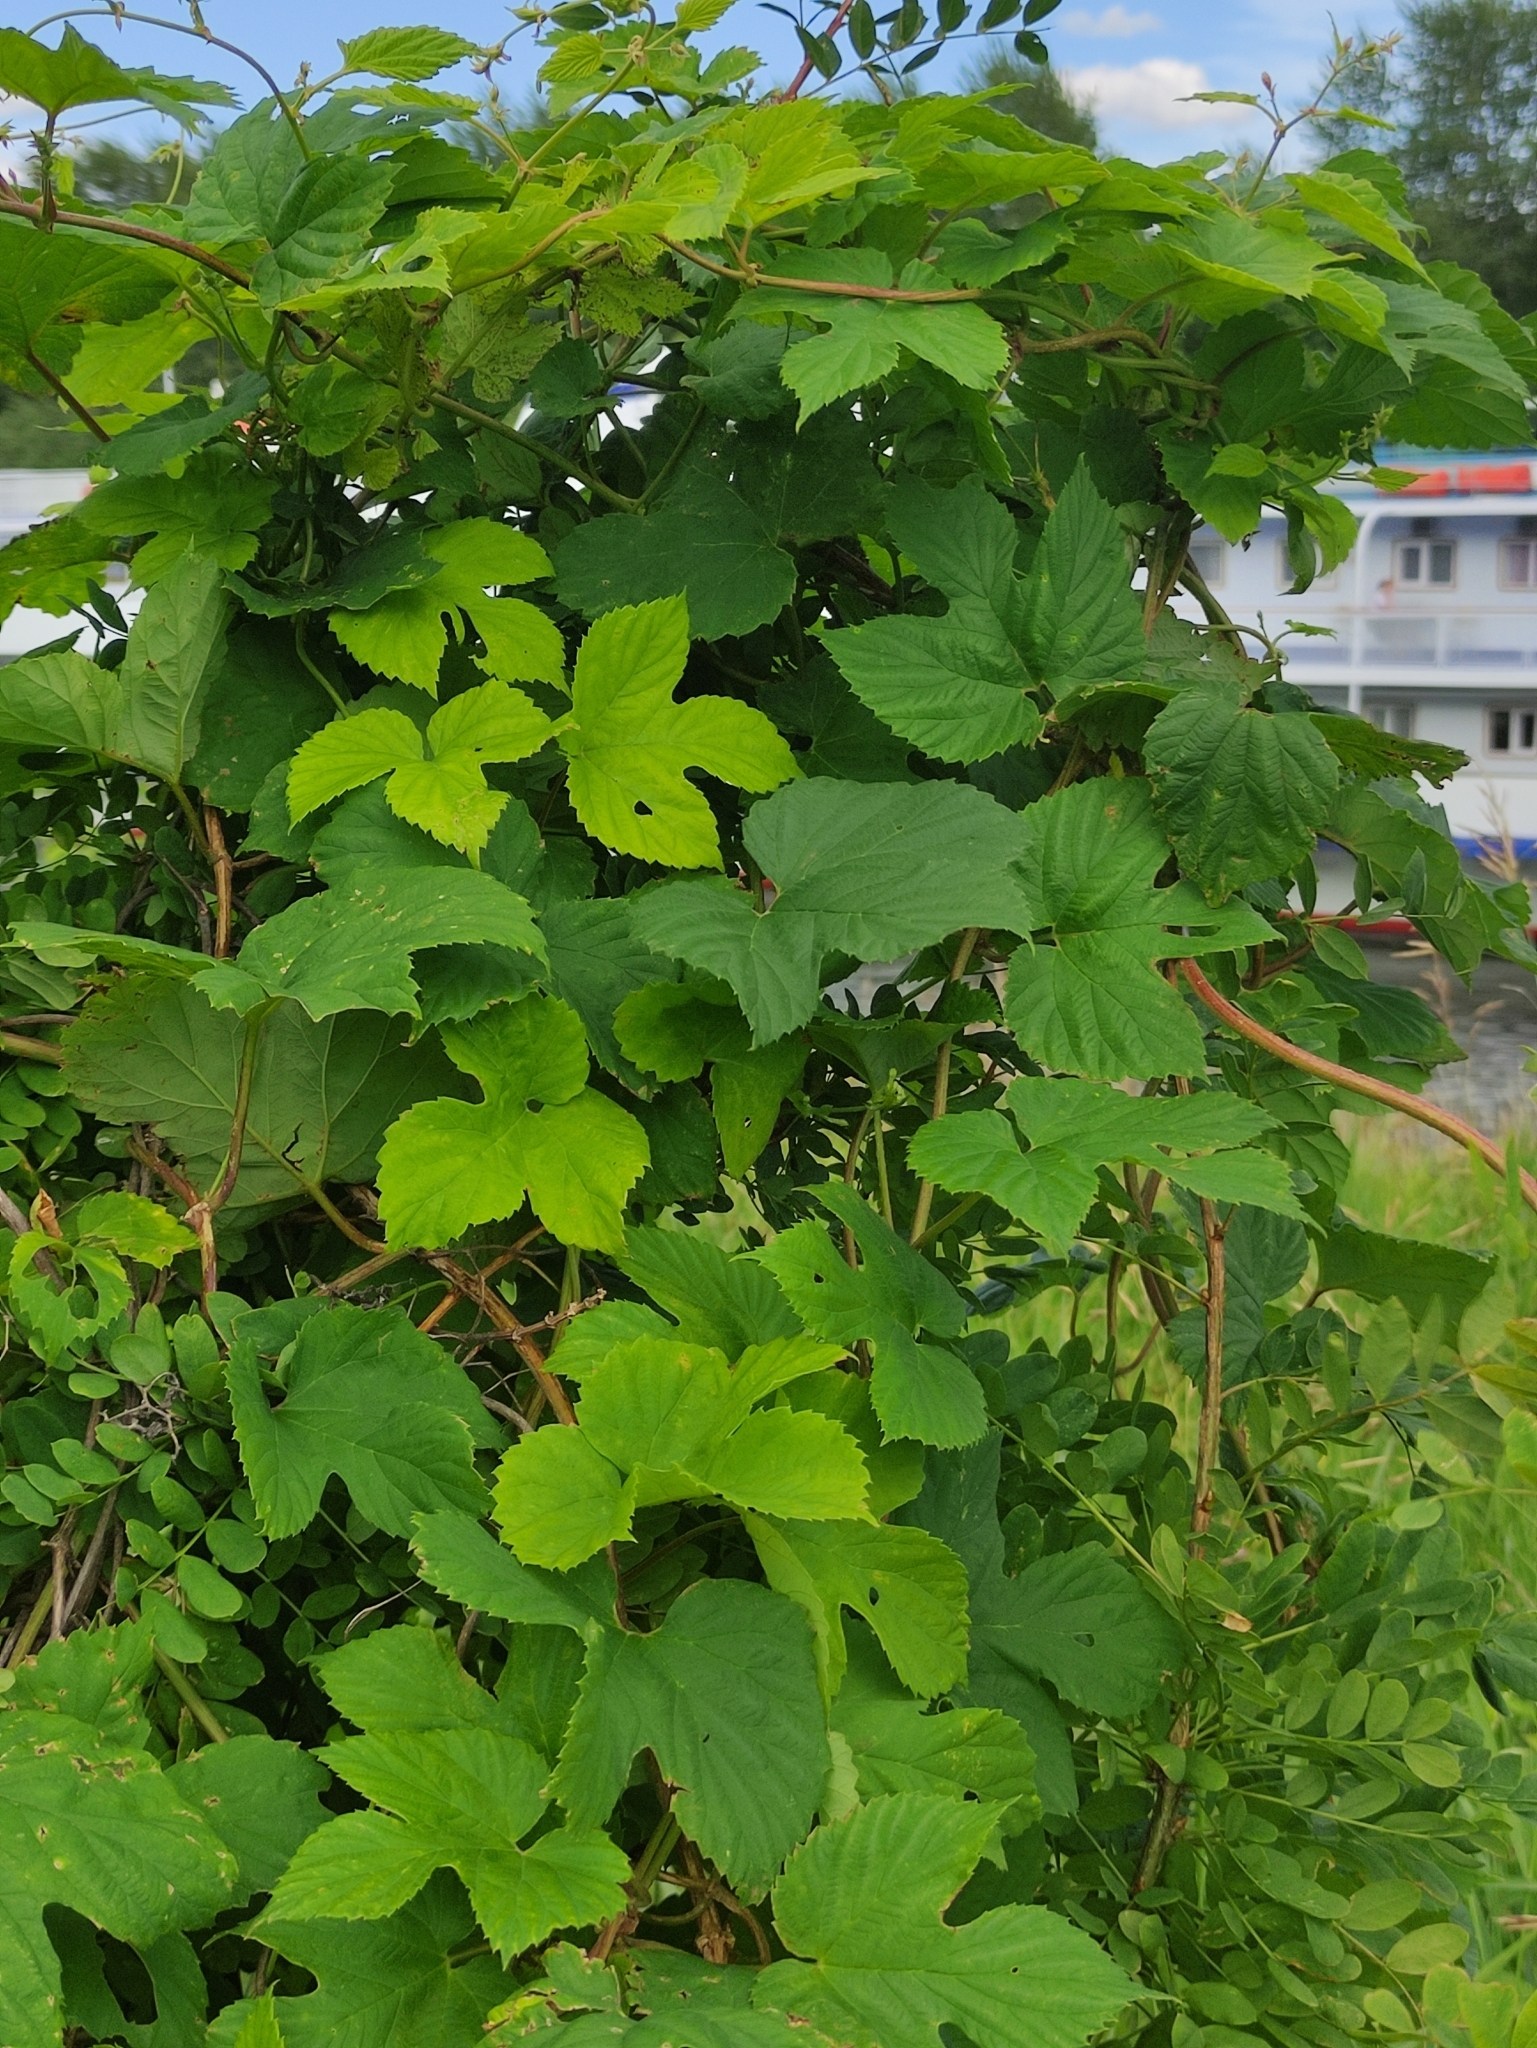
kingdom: Plantae
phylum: Tracheophyta
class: Magnoliopsida
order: Rosales
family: Cannabaceae
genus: Humulus
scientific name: Humulus lupulus
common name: Hop
